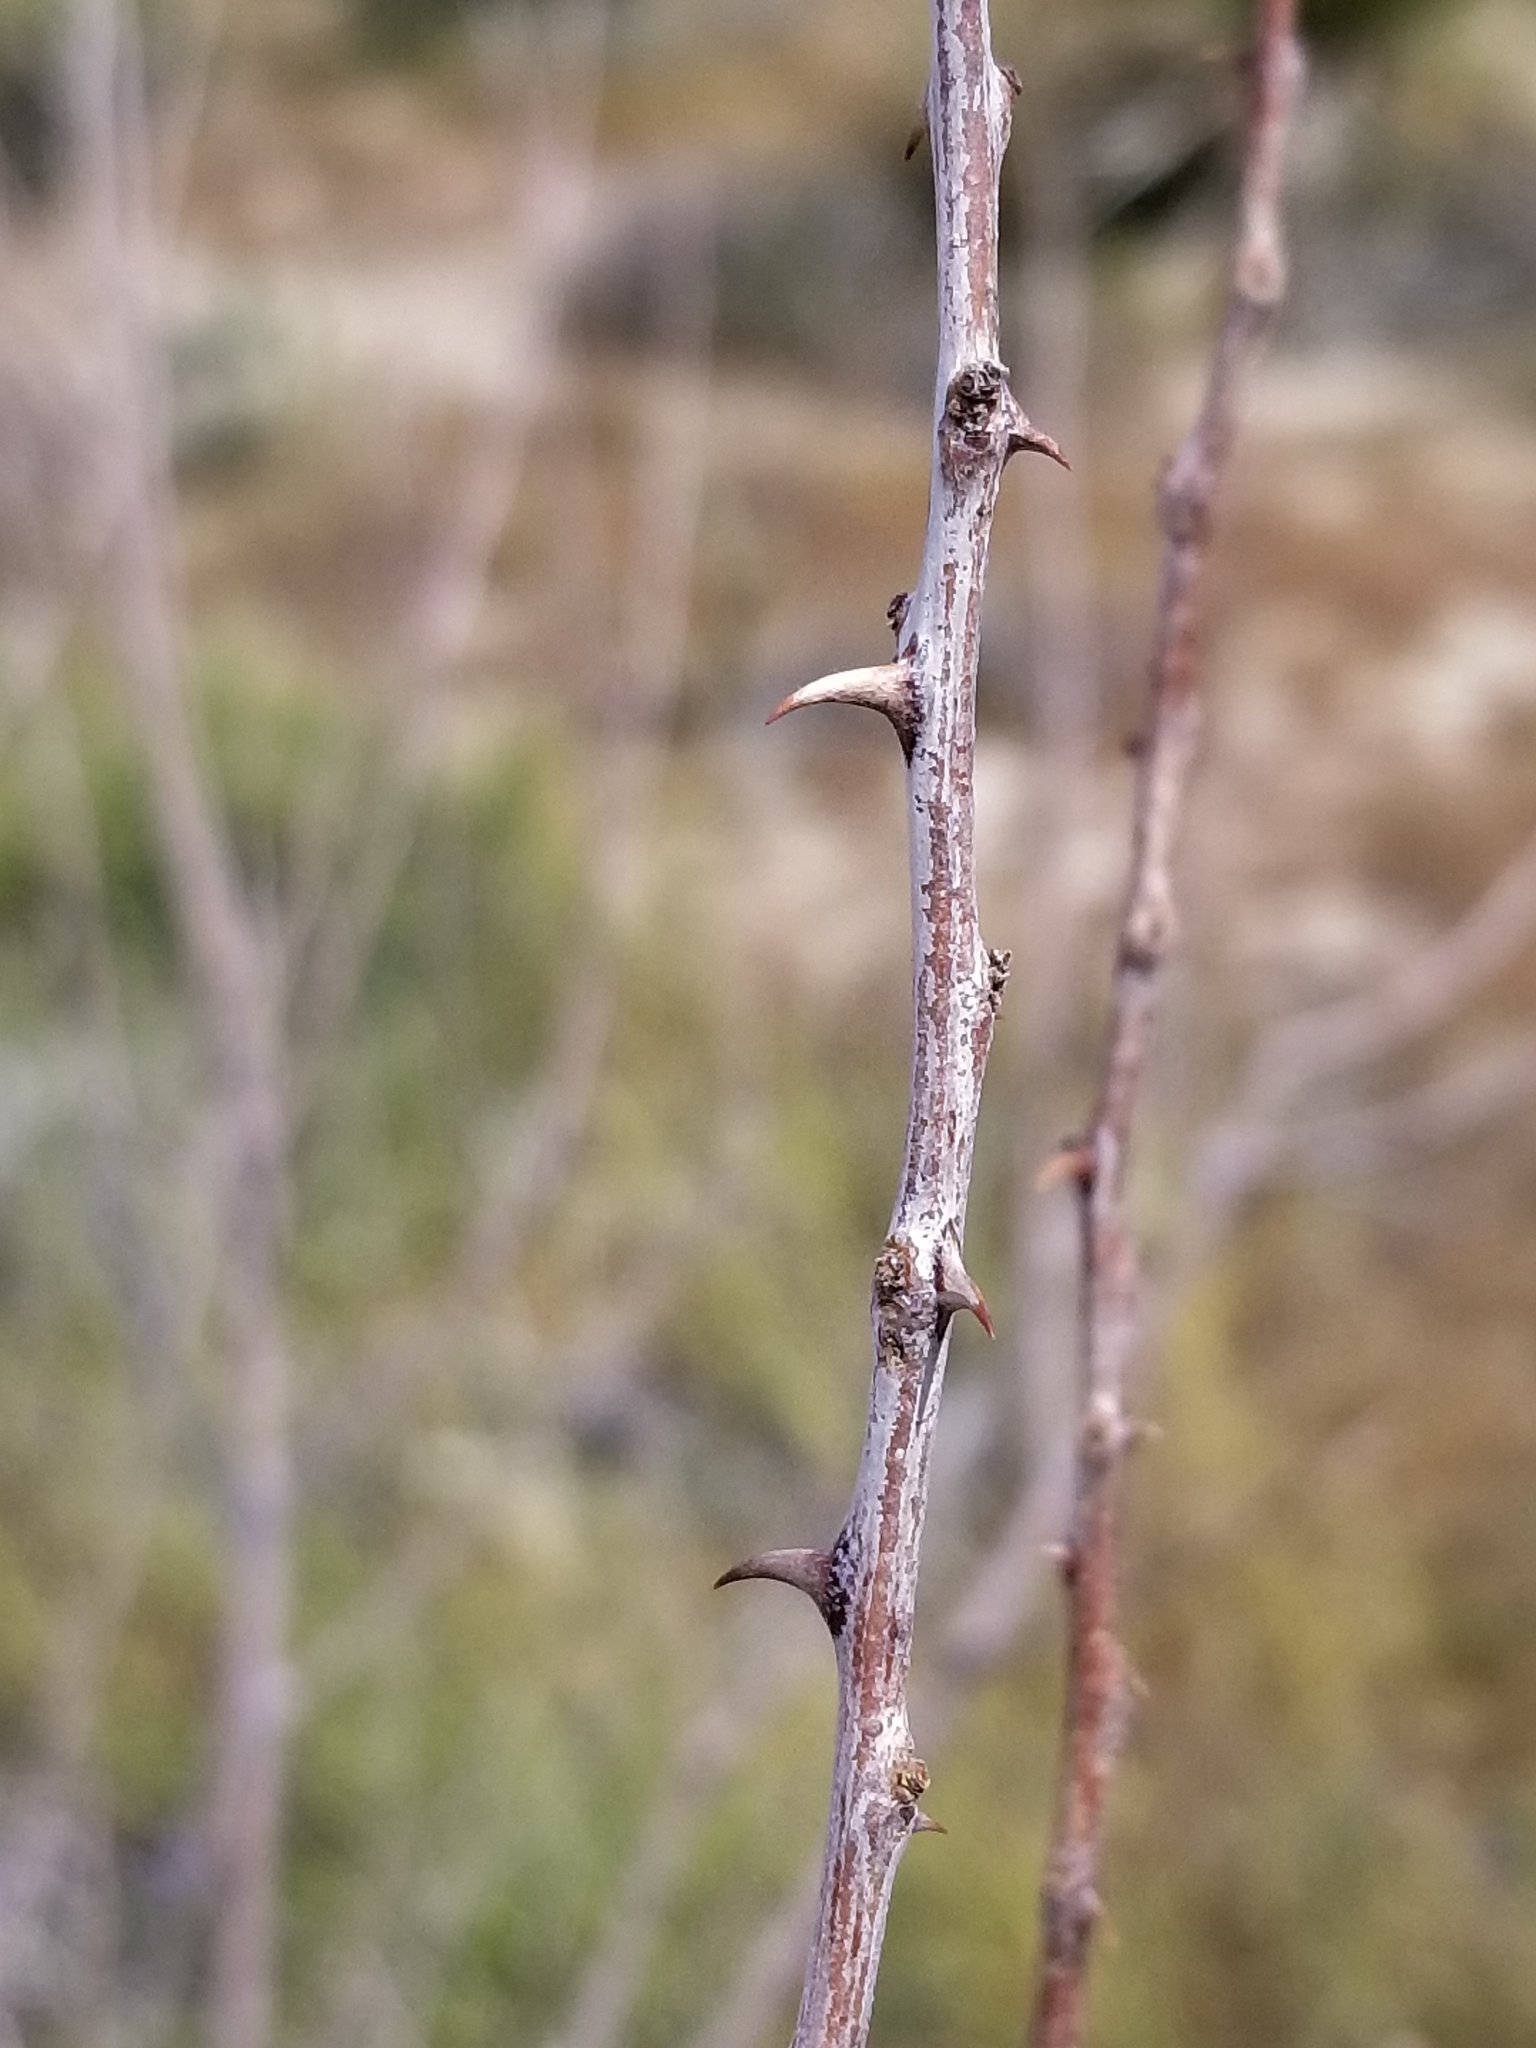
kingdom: Plantae
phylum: Tracheophyta
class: Magnoliopsida
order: Fabales
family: Fabaceae
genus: Senegalia
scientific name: Senegalia greggii
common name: Texas-mimosa
